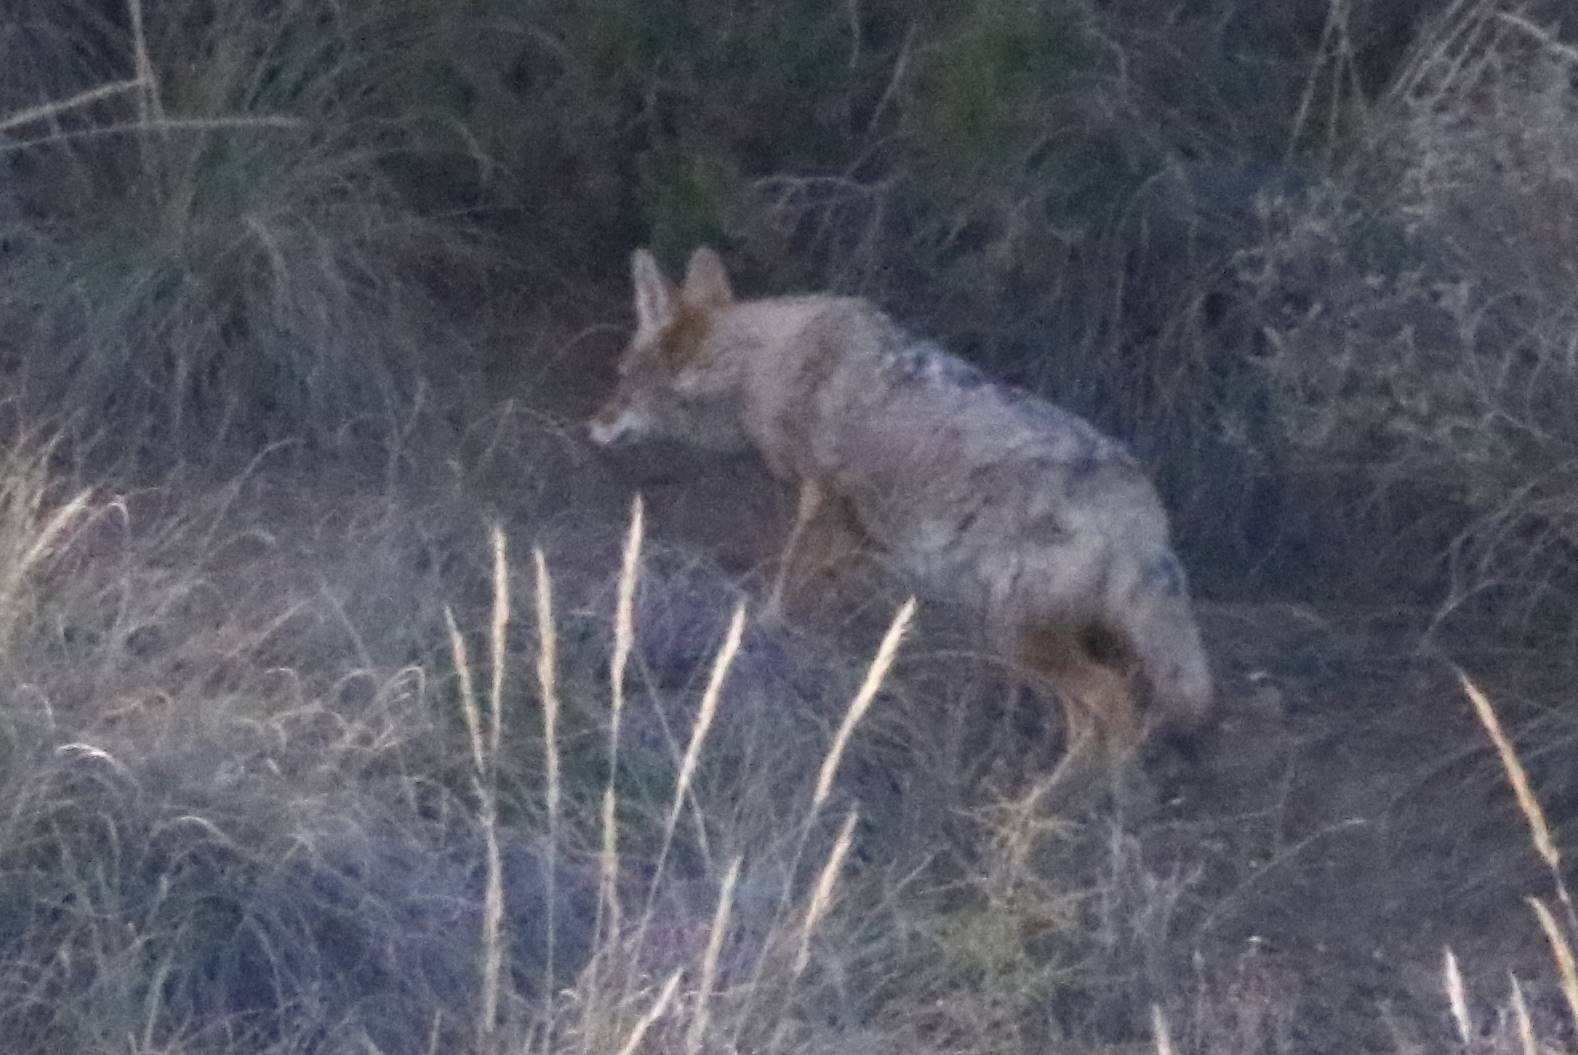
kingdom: Animalia
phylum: Chordata
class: Mammalia
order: Carnivora
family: Canidae
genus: Canis
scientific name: Canis lupaster
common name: African golden wolf
